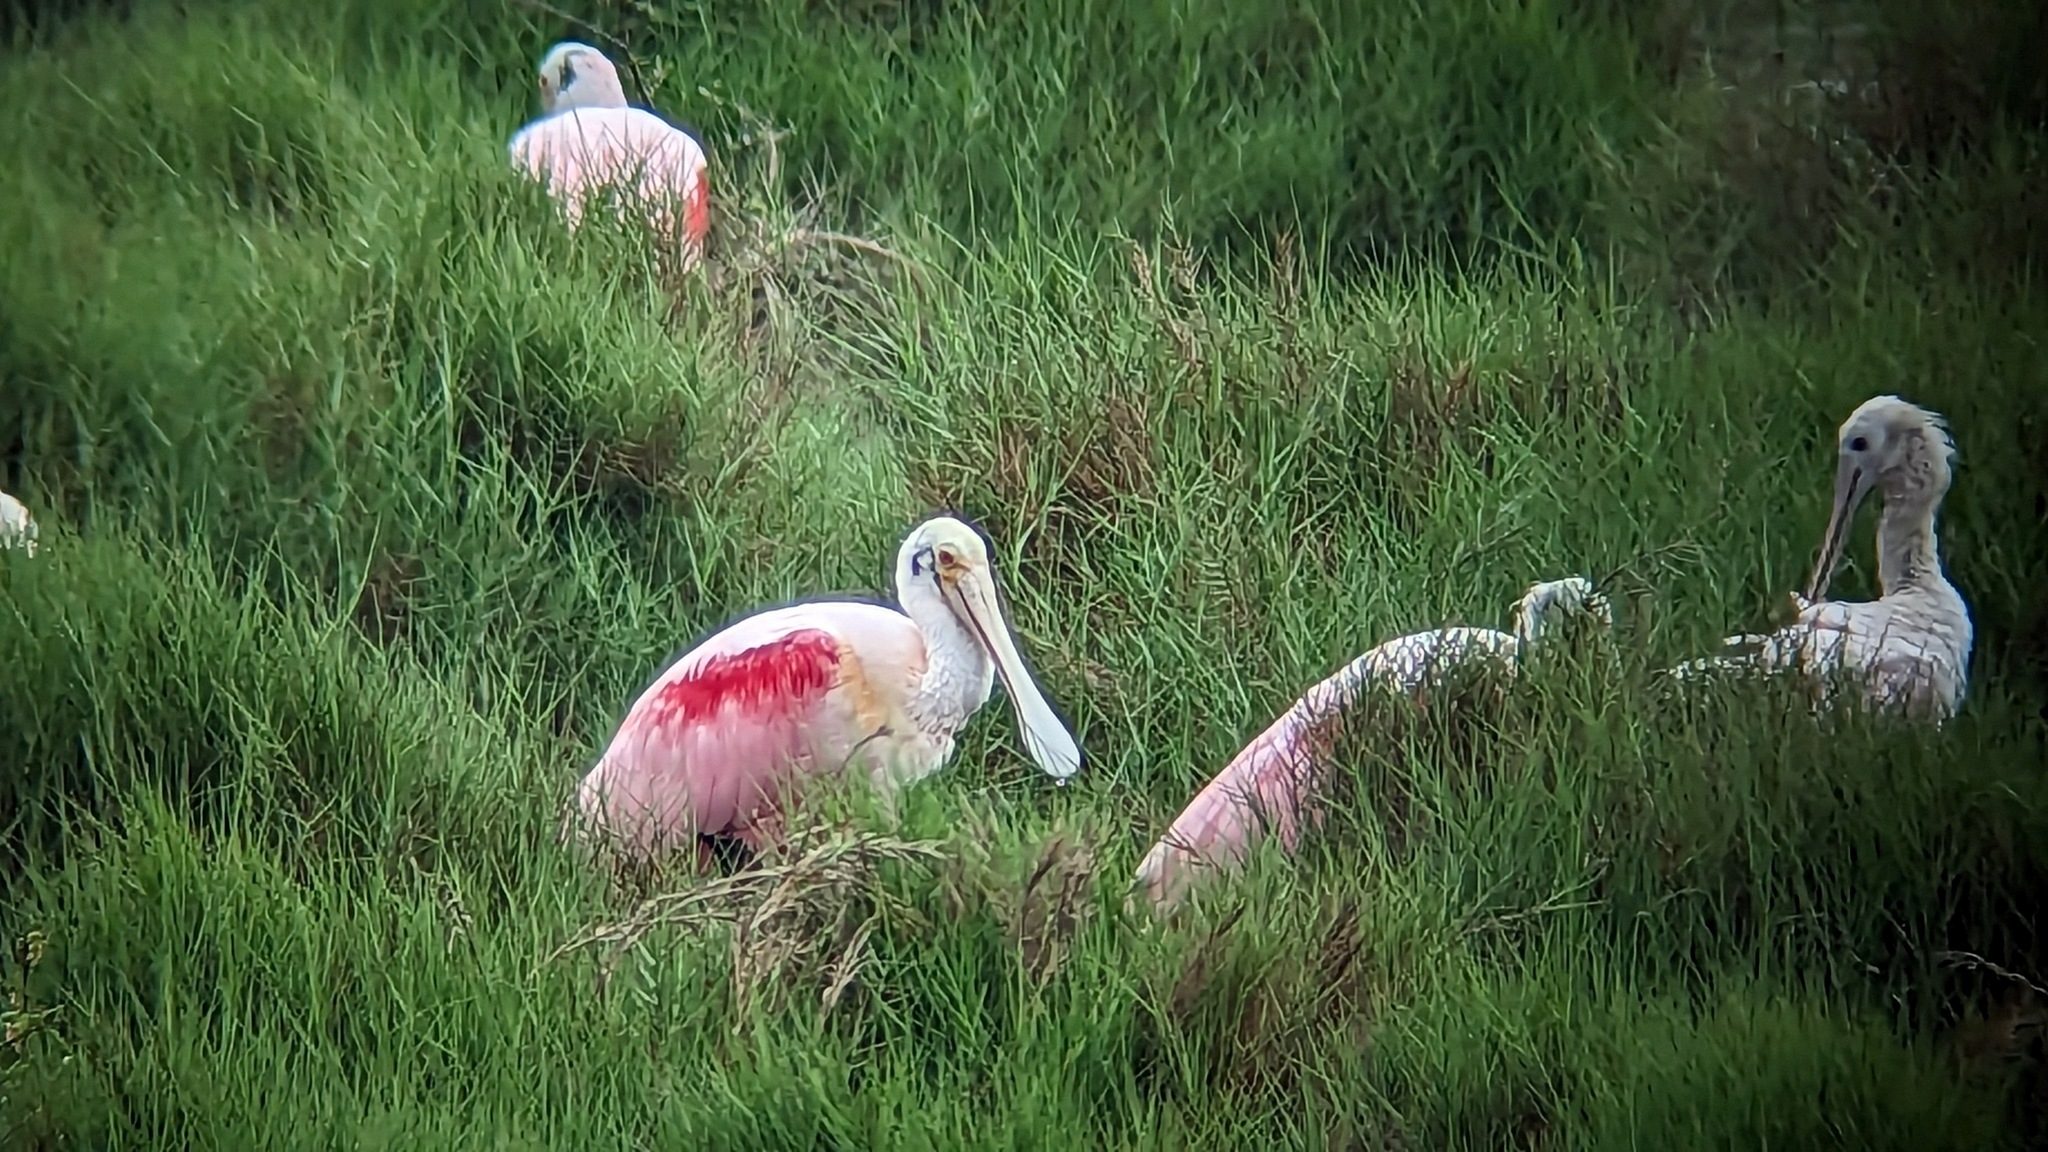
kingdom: Animalia
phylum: Chordata
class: Aves
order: Pelecaniformes
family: Threskiornithidae
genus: Platalea
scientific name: Platalea ajaja
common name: Roseate spoonbill
